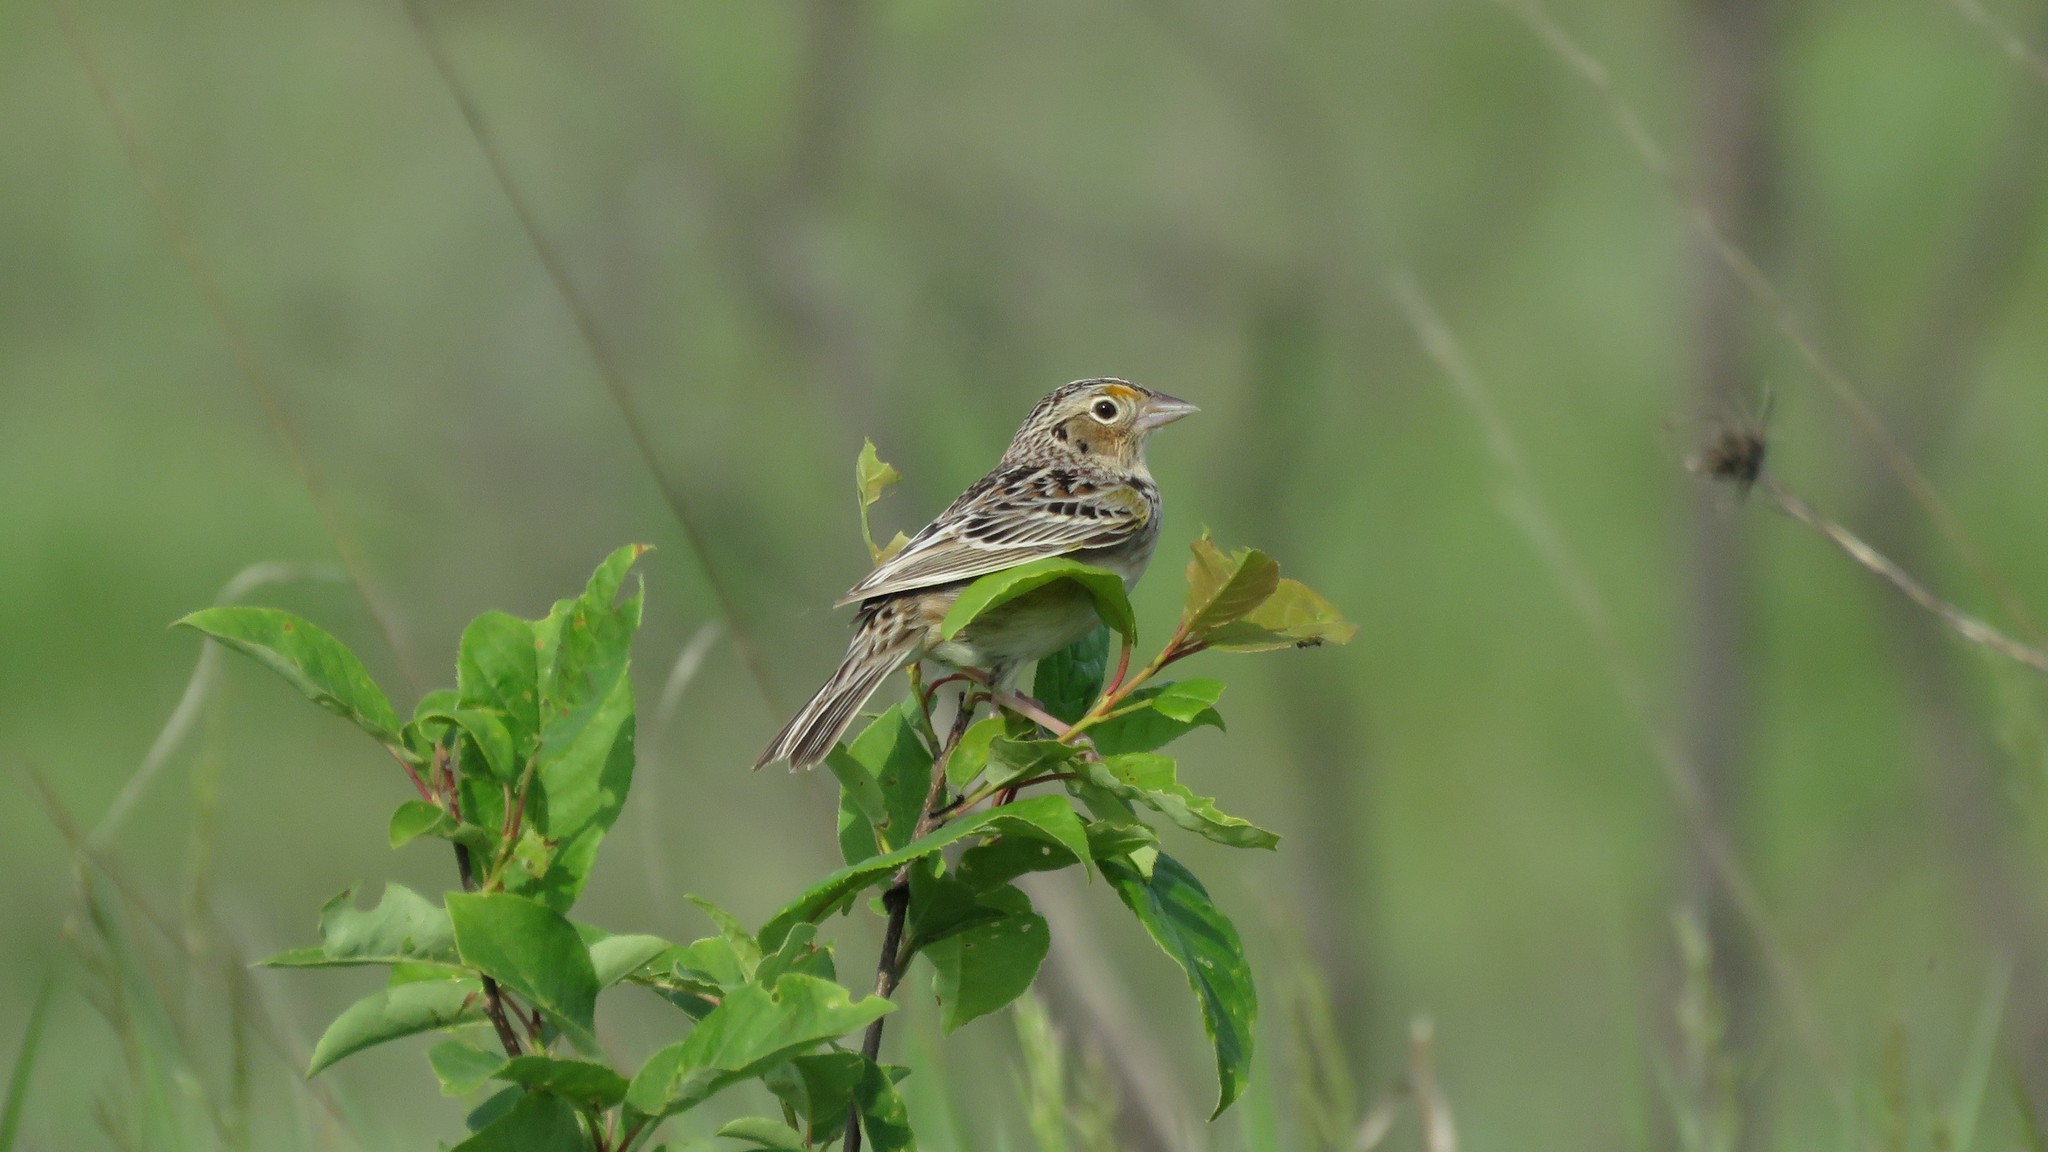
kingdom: Animalia
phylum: Chordata
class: Aves
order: Passeriformes
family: Passerellidae
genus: Ammodramus
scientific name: Ammodramus savannarum
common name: Grasshopper sparrow
